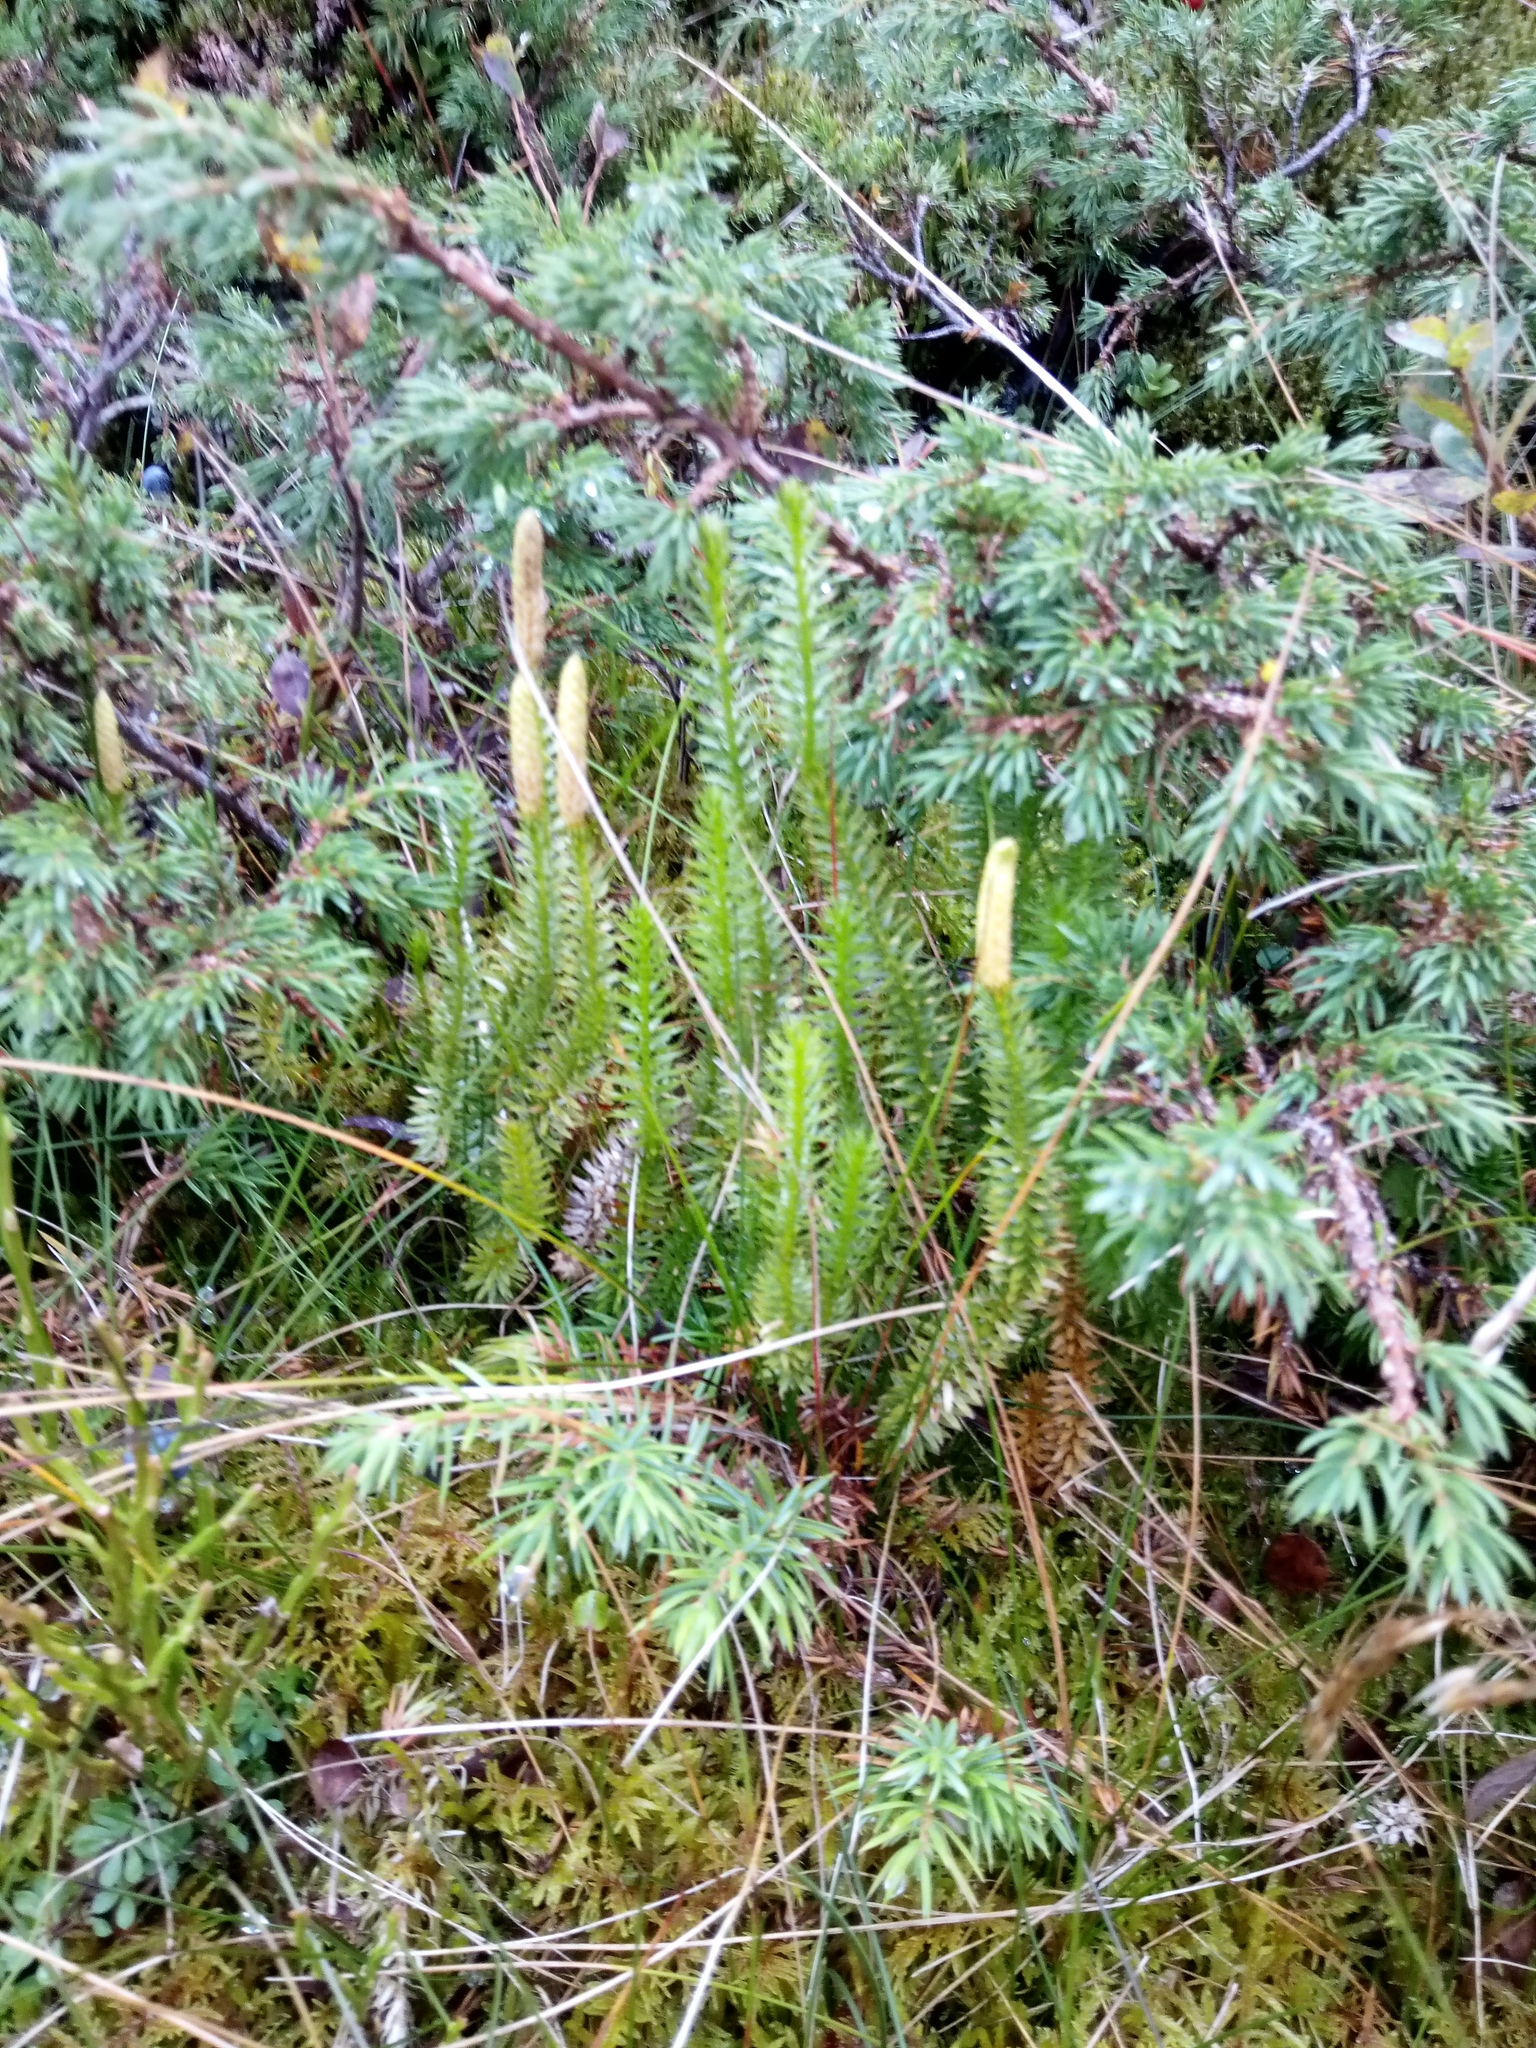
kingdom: Plantae
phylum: Tracheophyta
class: Lycopodiopsida
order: Lycopodiales
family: Lycopodiaceae
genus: Spinulum
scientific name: Spinulum annotinum
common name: Interrupted club-moss
